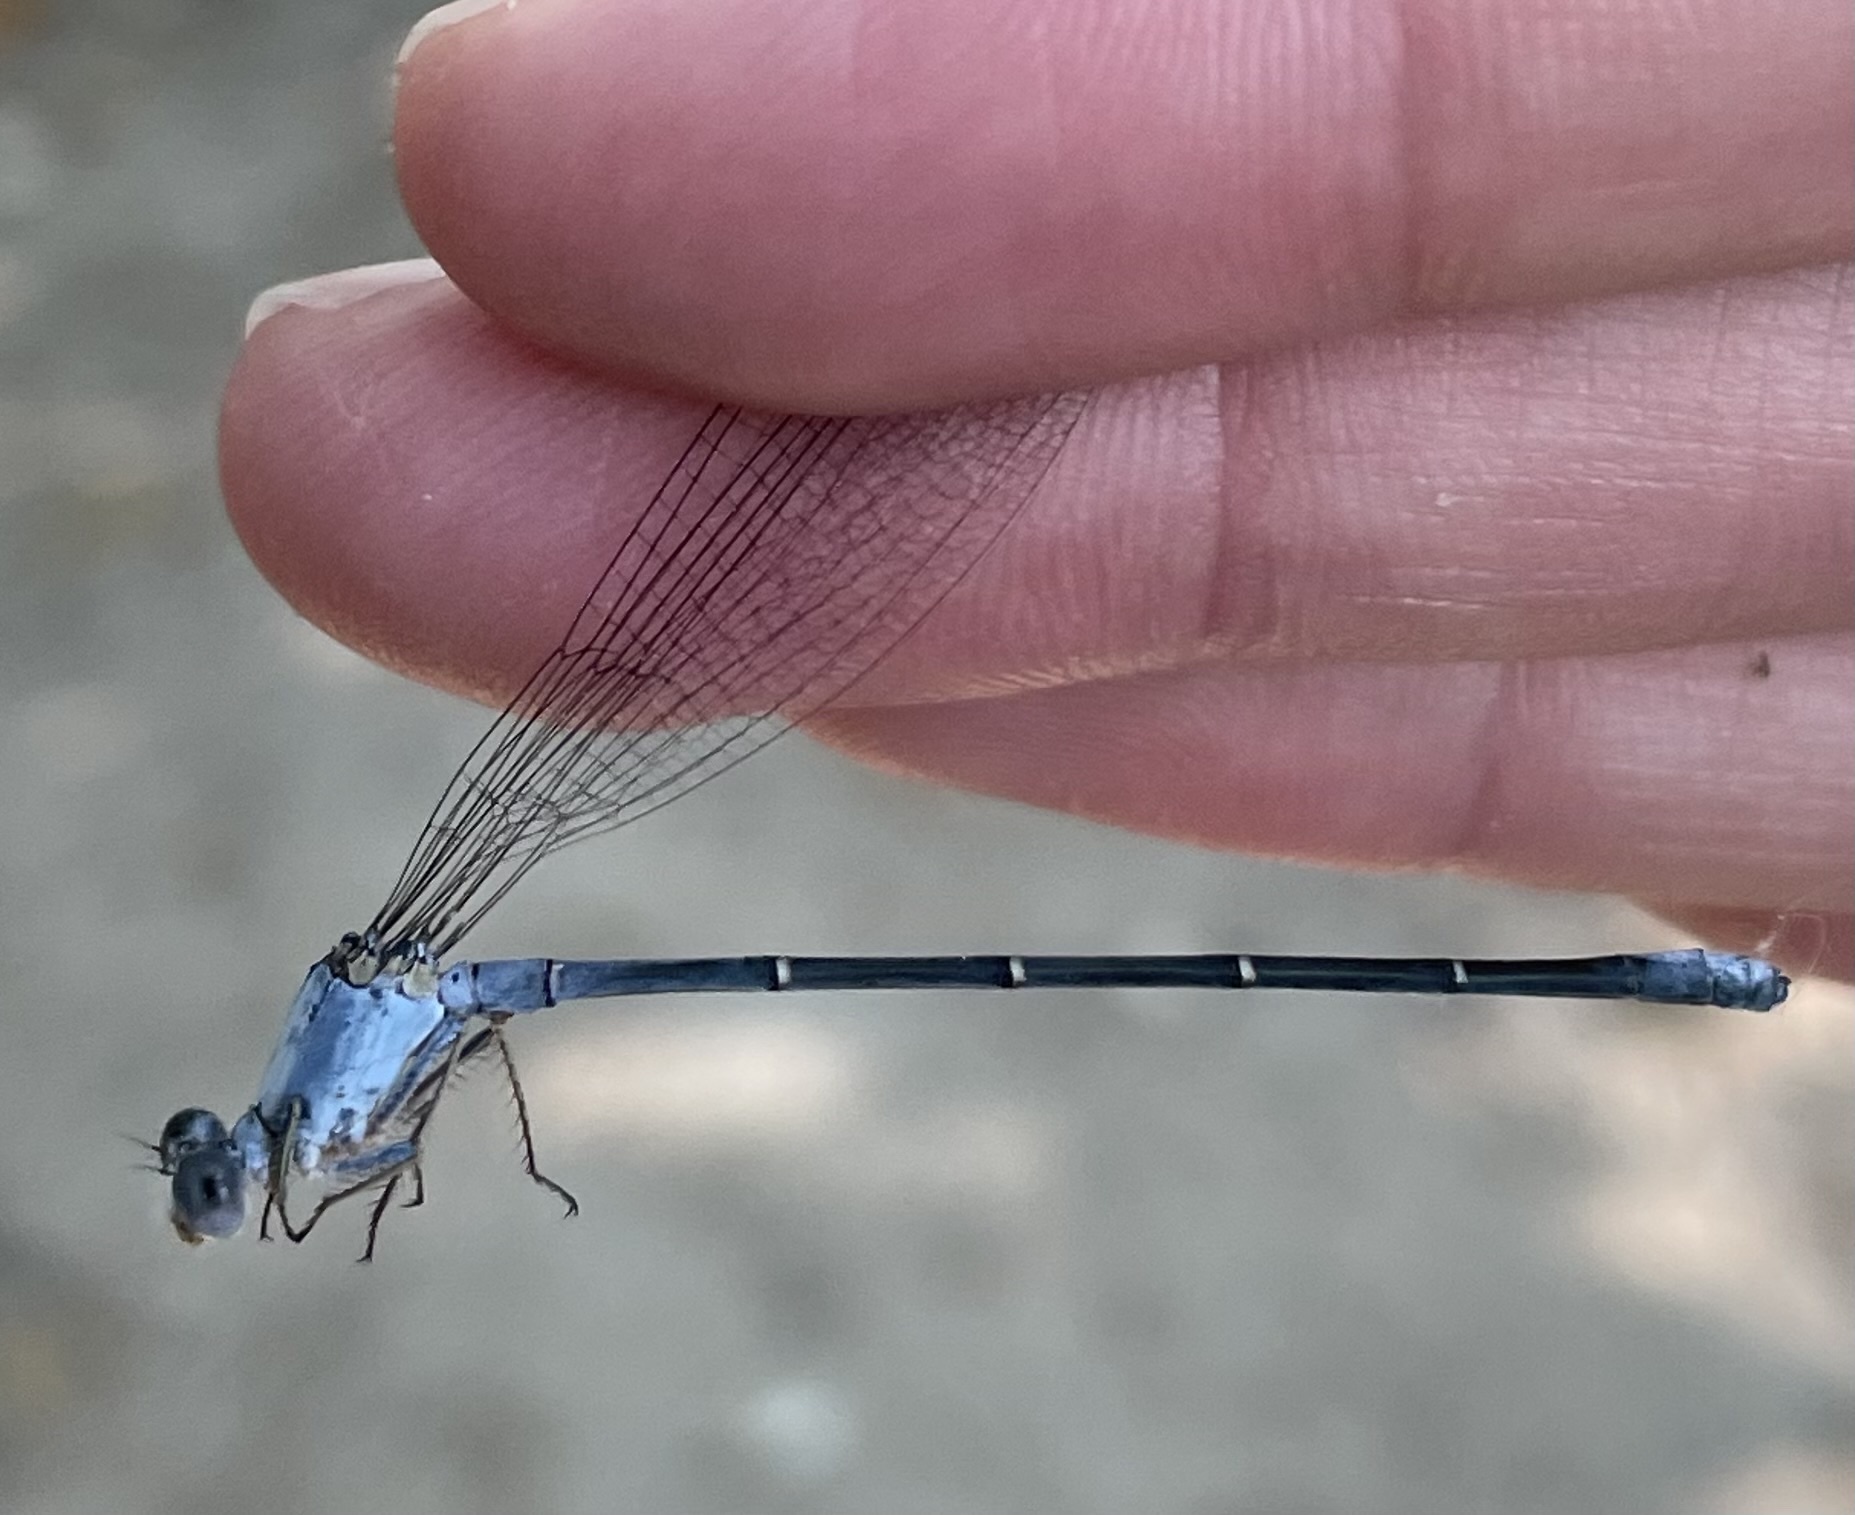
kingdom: Animalia
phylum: Arthropoda
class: Insecta
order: Odonata
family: Coenagrionidae
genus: Argia
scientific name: Argia moesta
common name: Powdered dancer
